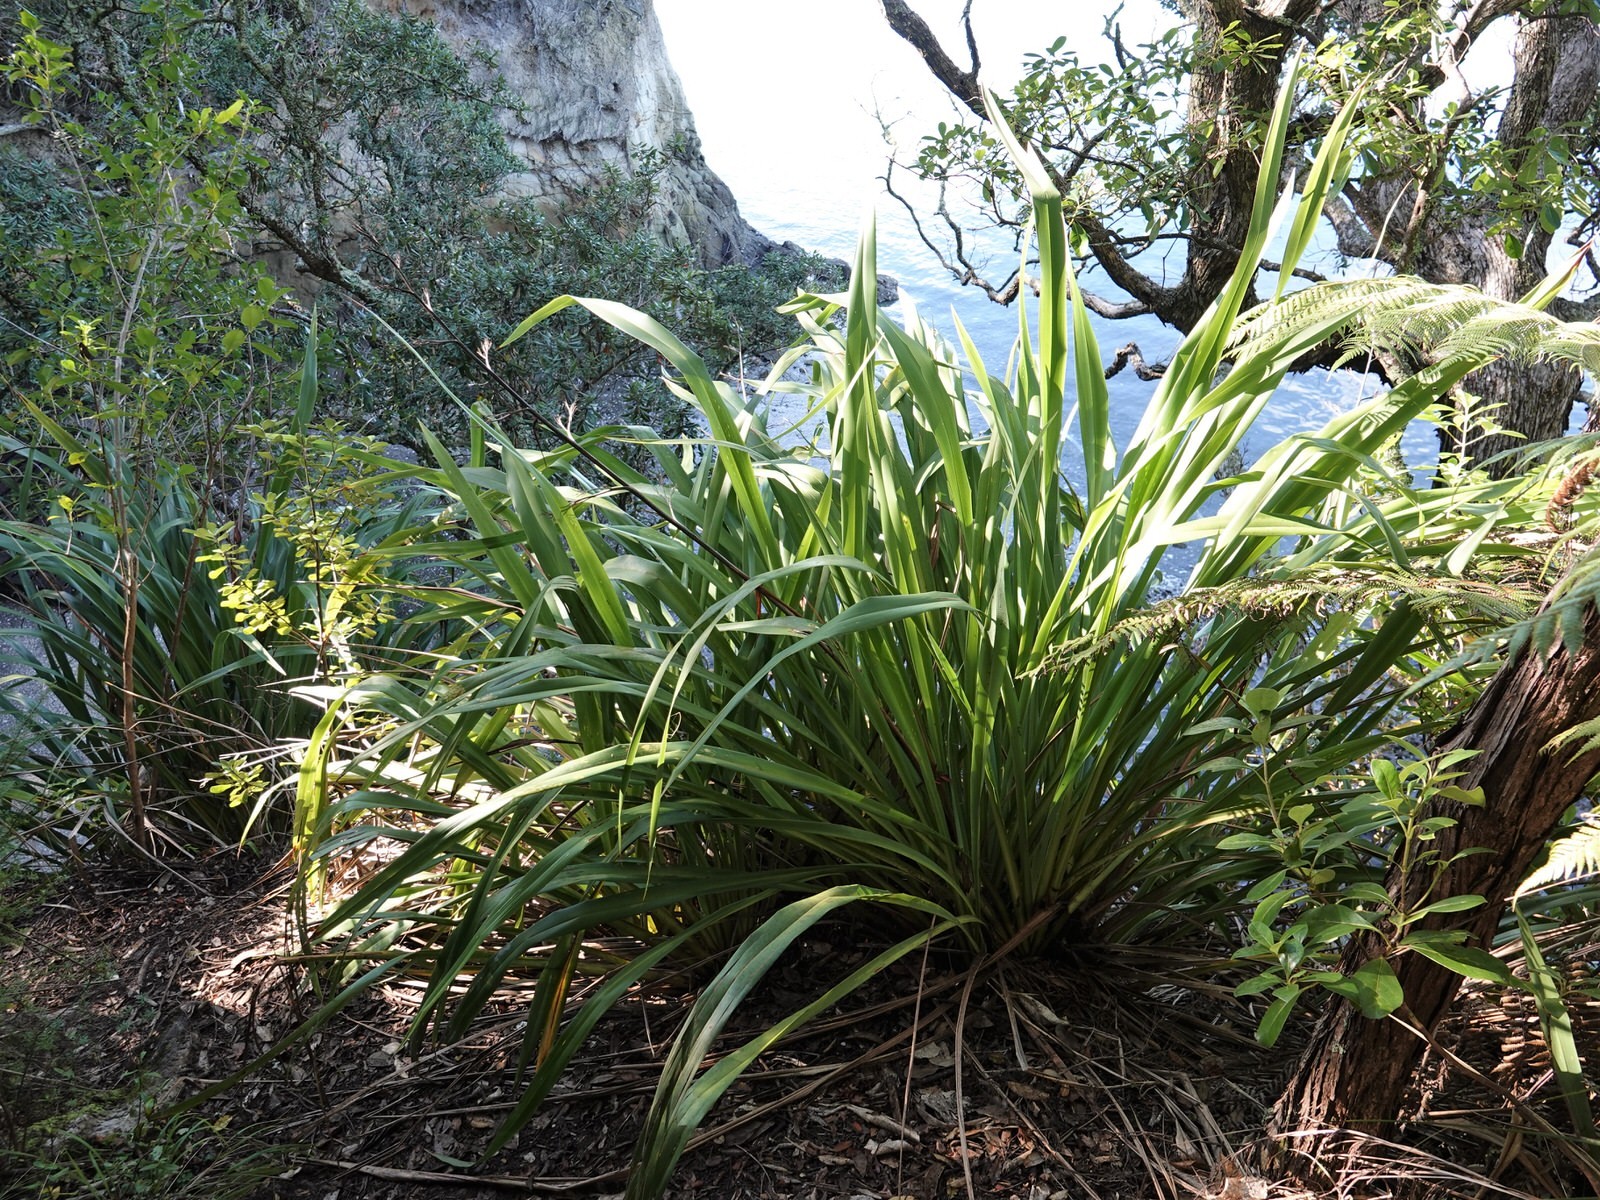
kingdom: Plantae
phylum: Tracheophyta
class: Liliopsida
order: Asparagales
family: Asphodelaceae
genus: Phormium
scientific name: Phormium colensoi
